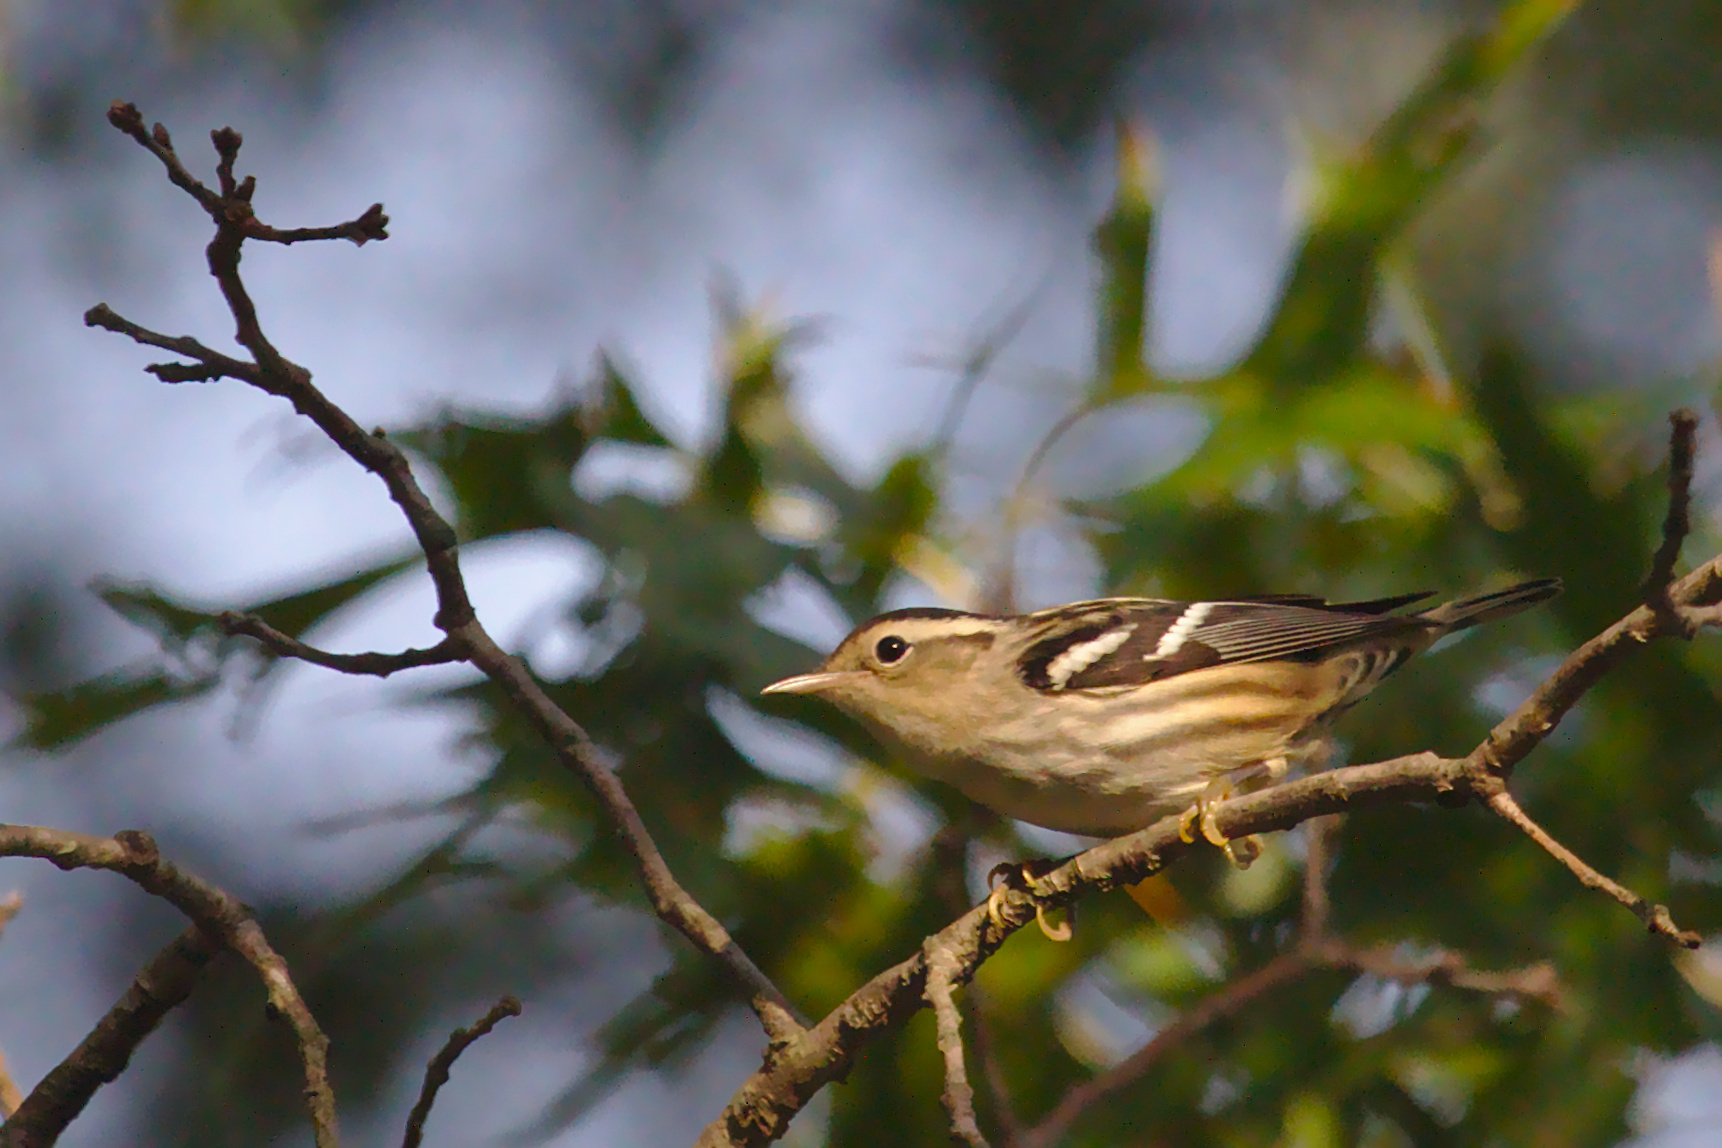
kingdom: Animalia
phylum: Chordata
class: Aves
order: Passeriformes
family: Parulidae
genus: Mniotilta
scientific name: Mniotilta varia
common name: Black-and-white warbler
